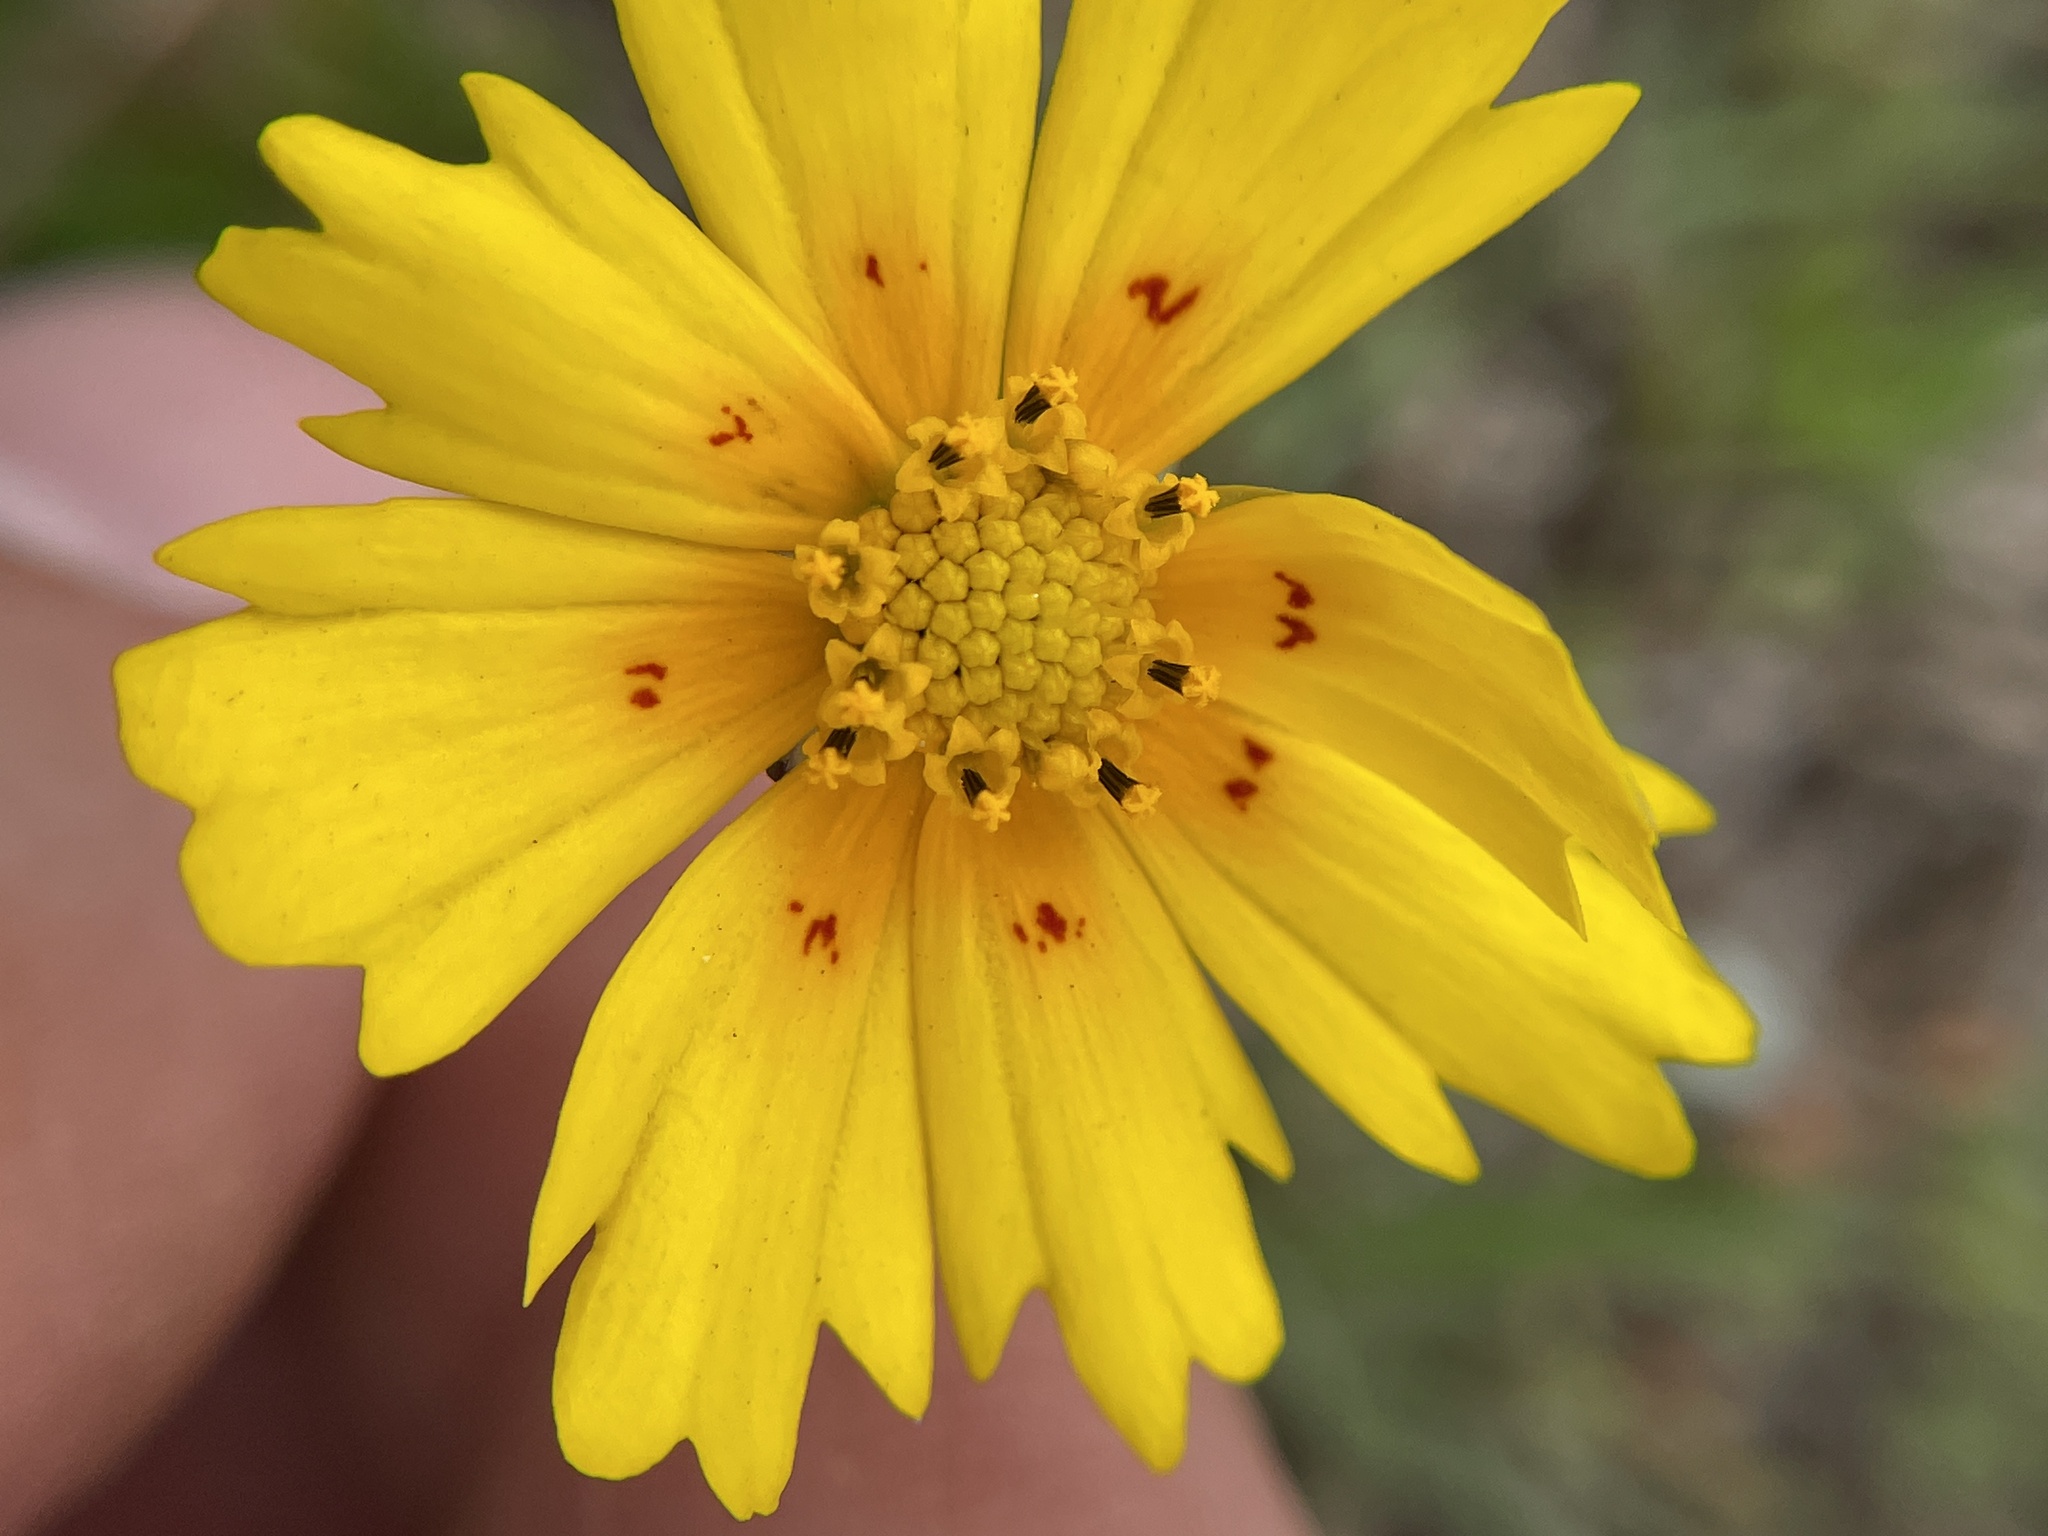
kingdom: Plantae
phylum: Tracheophyta
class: Magnoliopsida
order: Asterales
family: Asteraceae
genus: Coreopsis
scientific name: Coreopsis nuecensis
